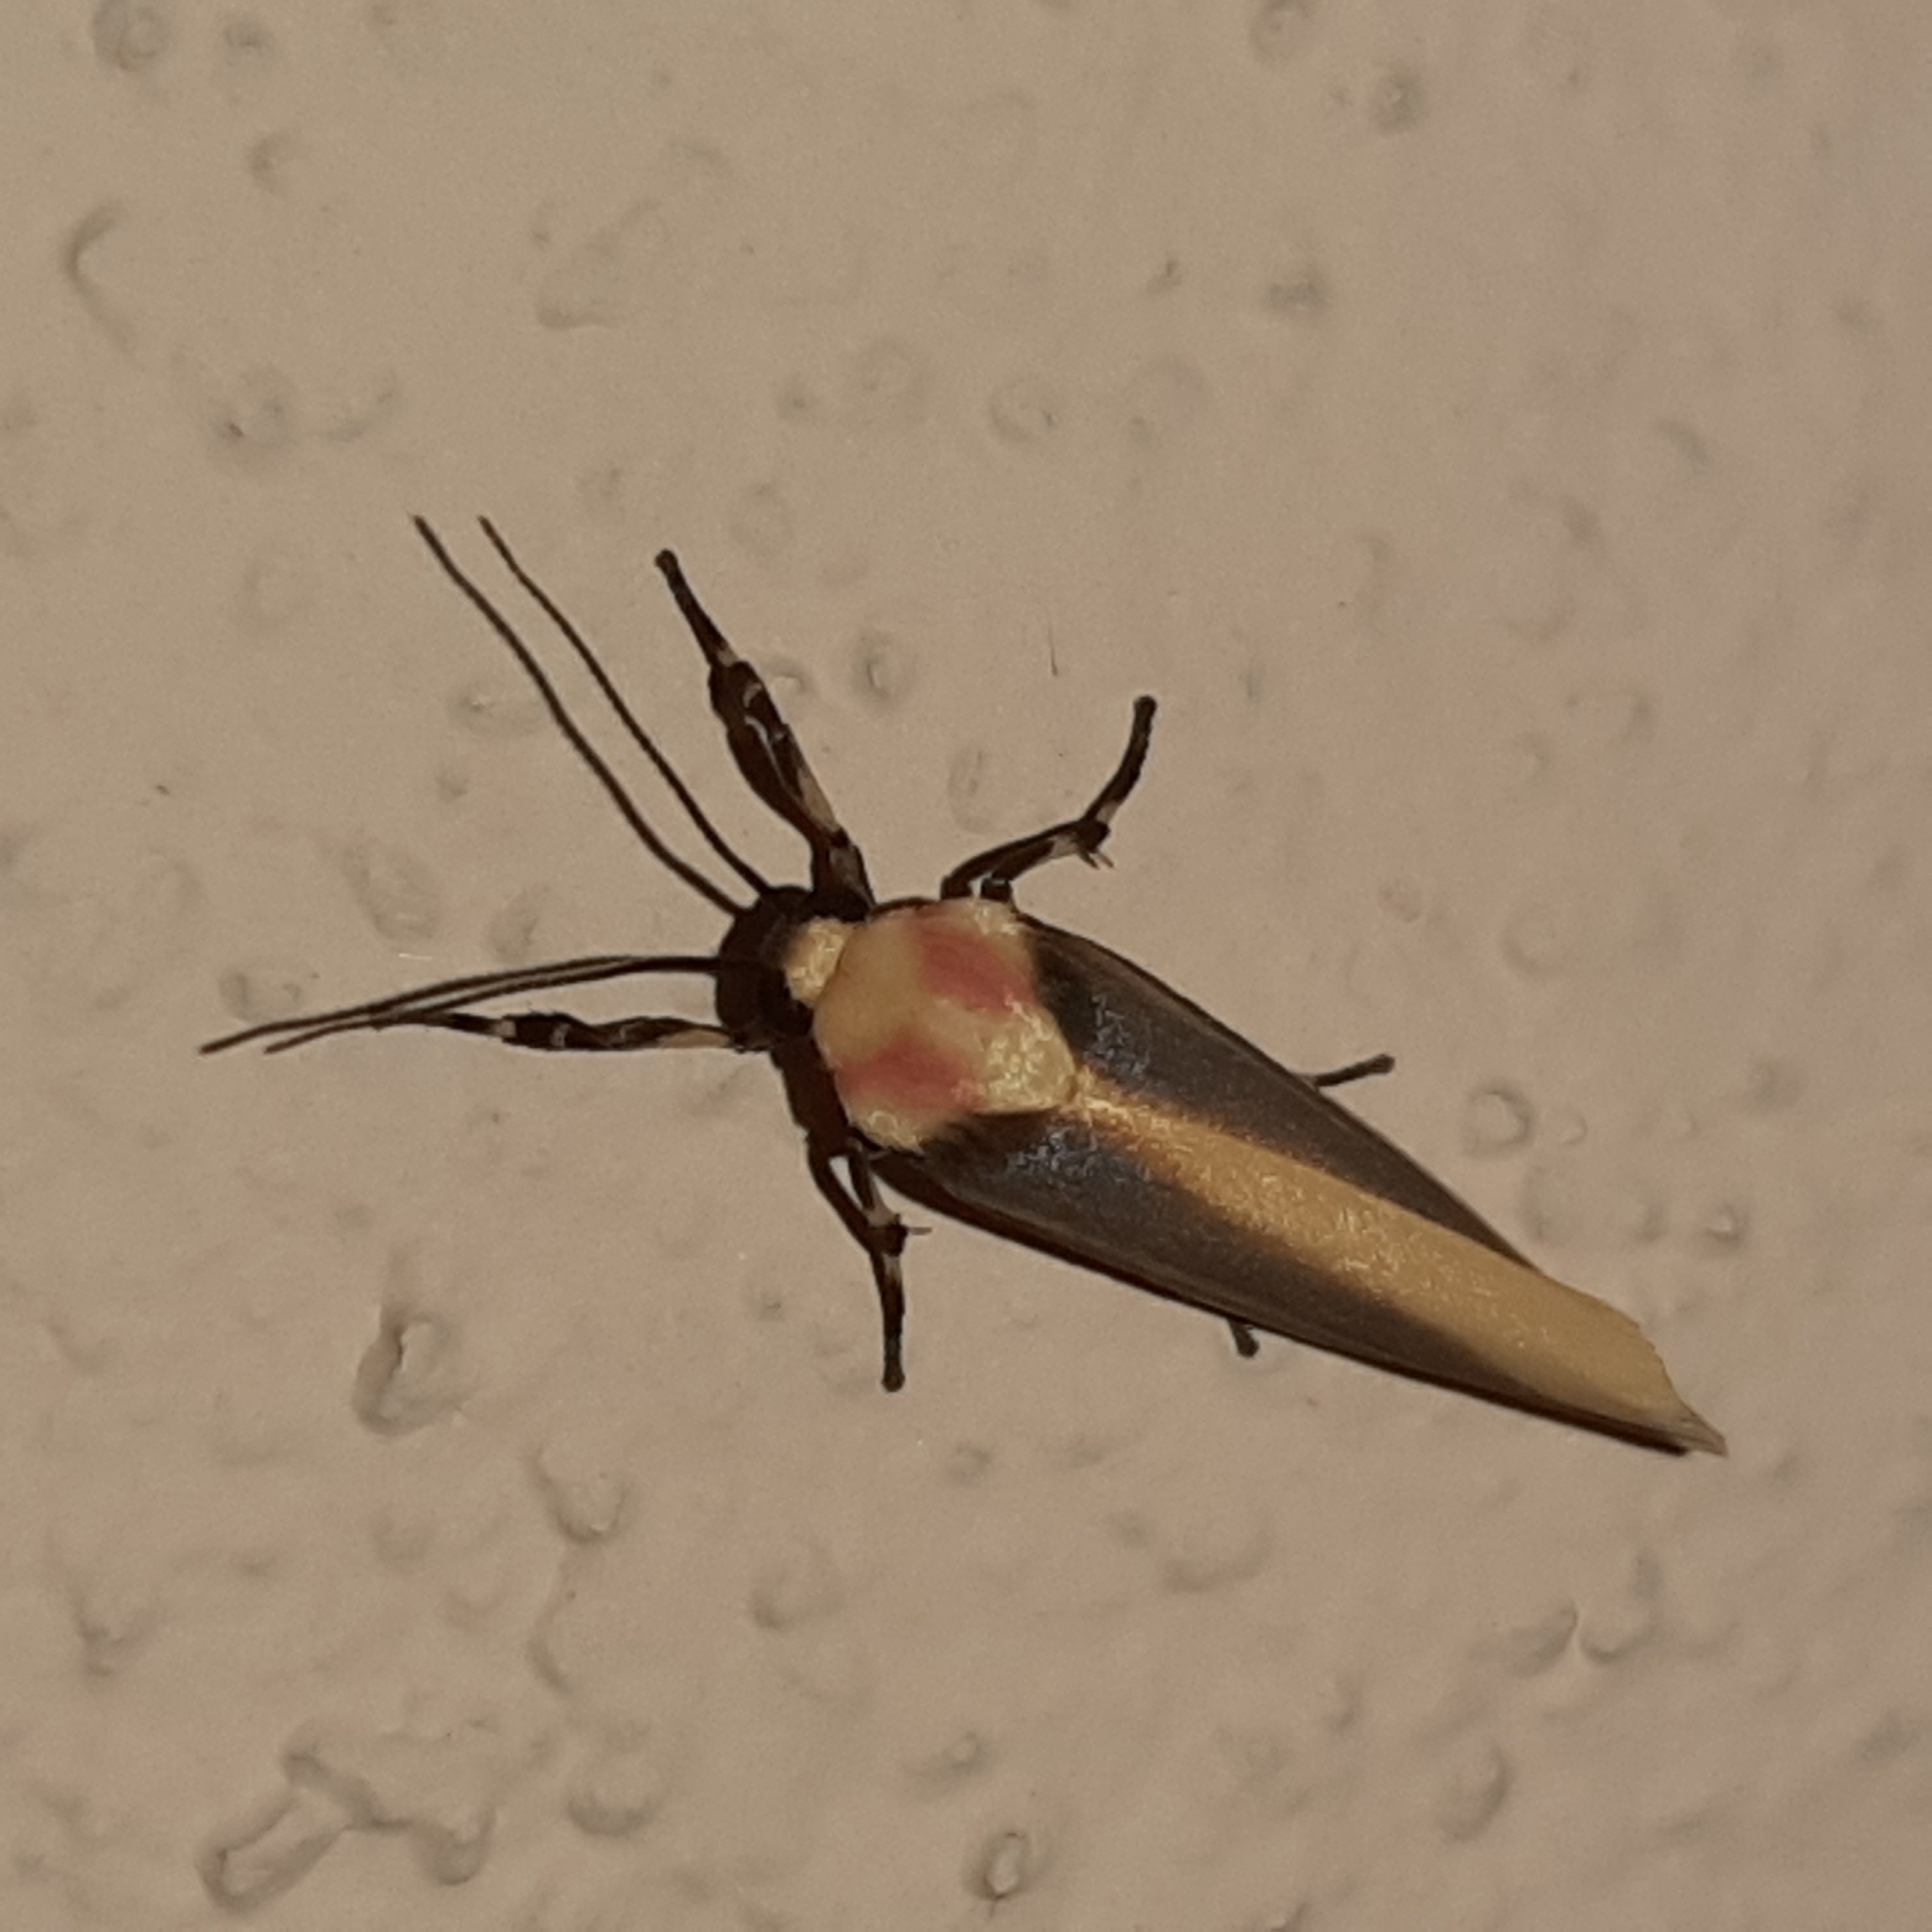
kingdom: Animalia
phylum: Arthropoda
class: Insecta
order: Lepidoptera
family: Erebidae
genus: Rhabdatomis
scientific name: Rhabdatomis laudamia
